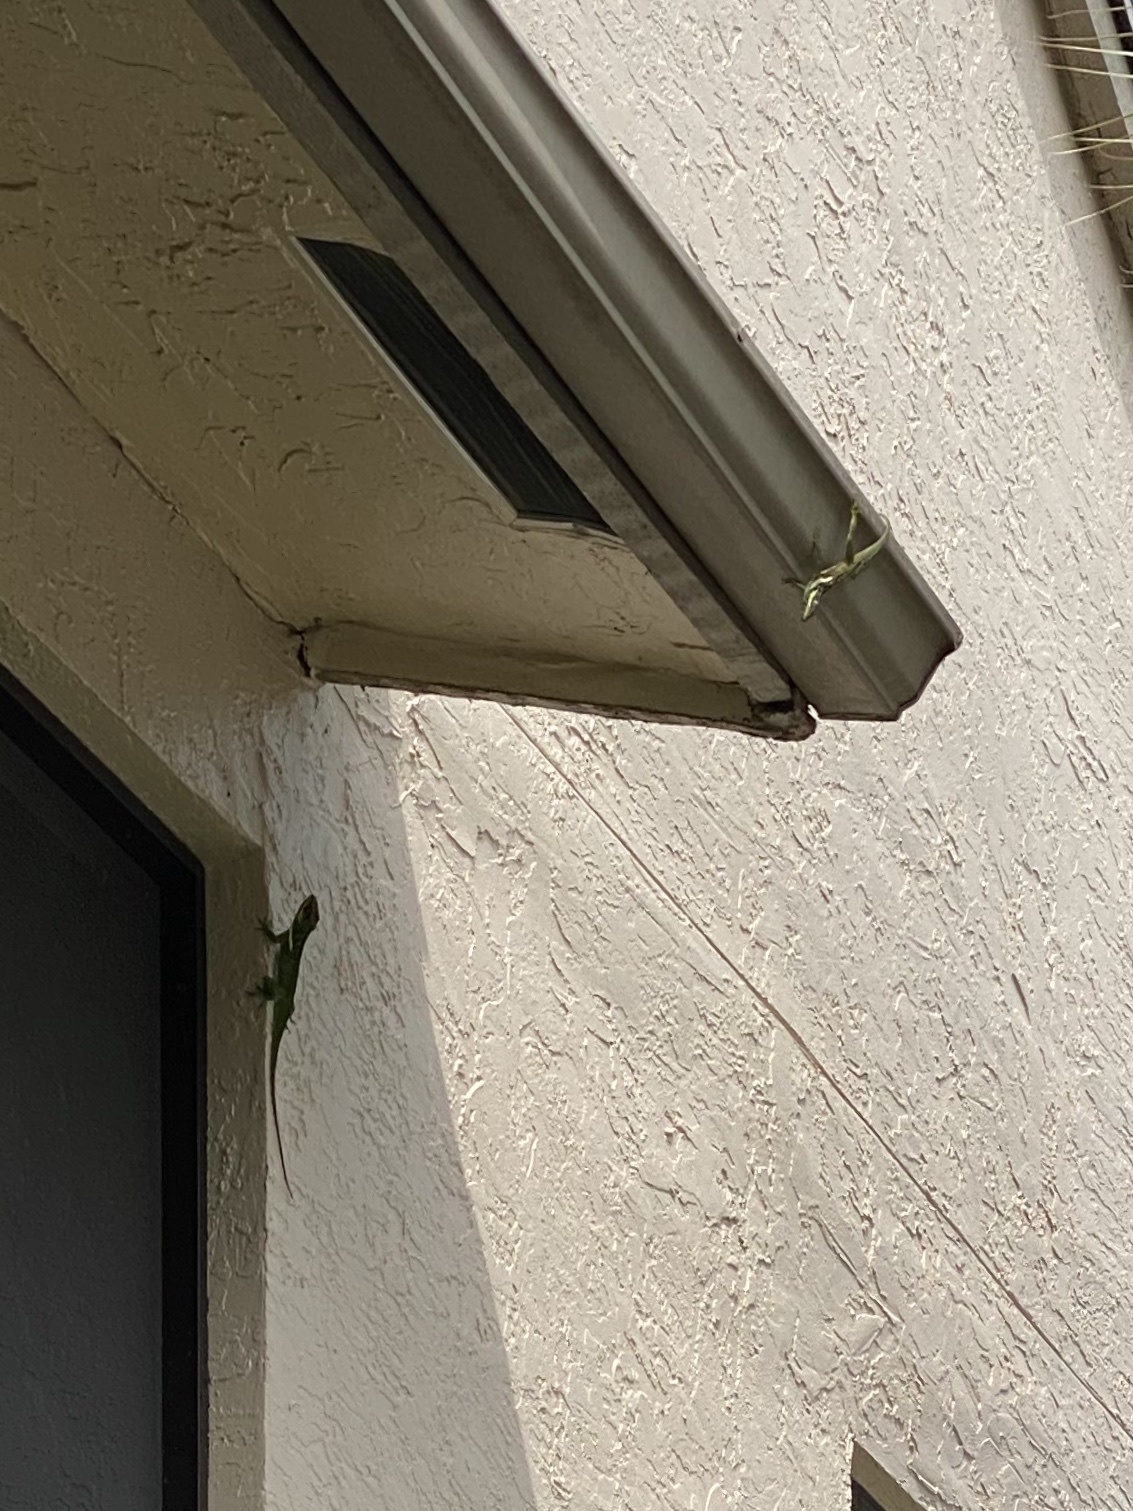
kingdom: Animalia
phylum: Chordata
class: Squamata
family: Dactyloidae
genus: Anolis
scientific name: Anolis equestris
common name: Knight anole
